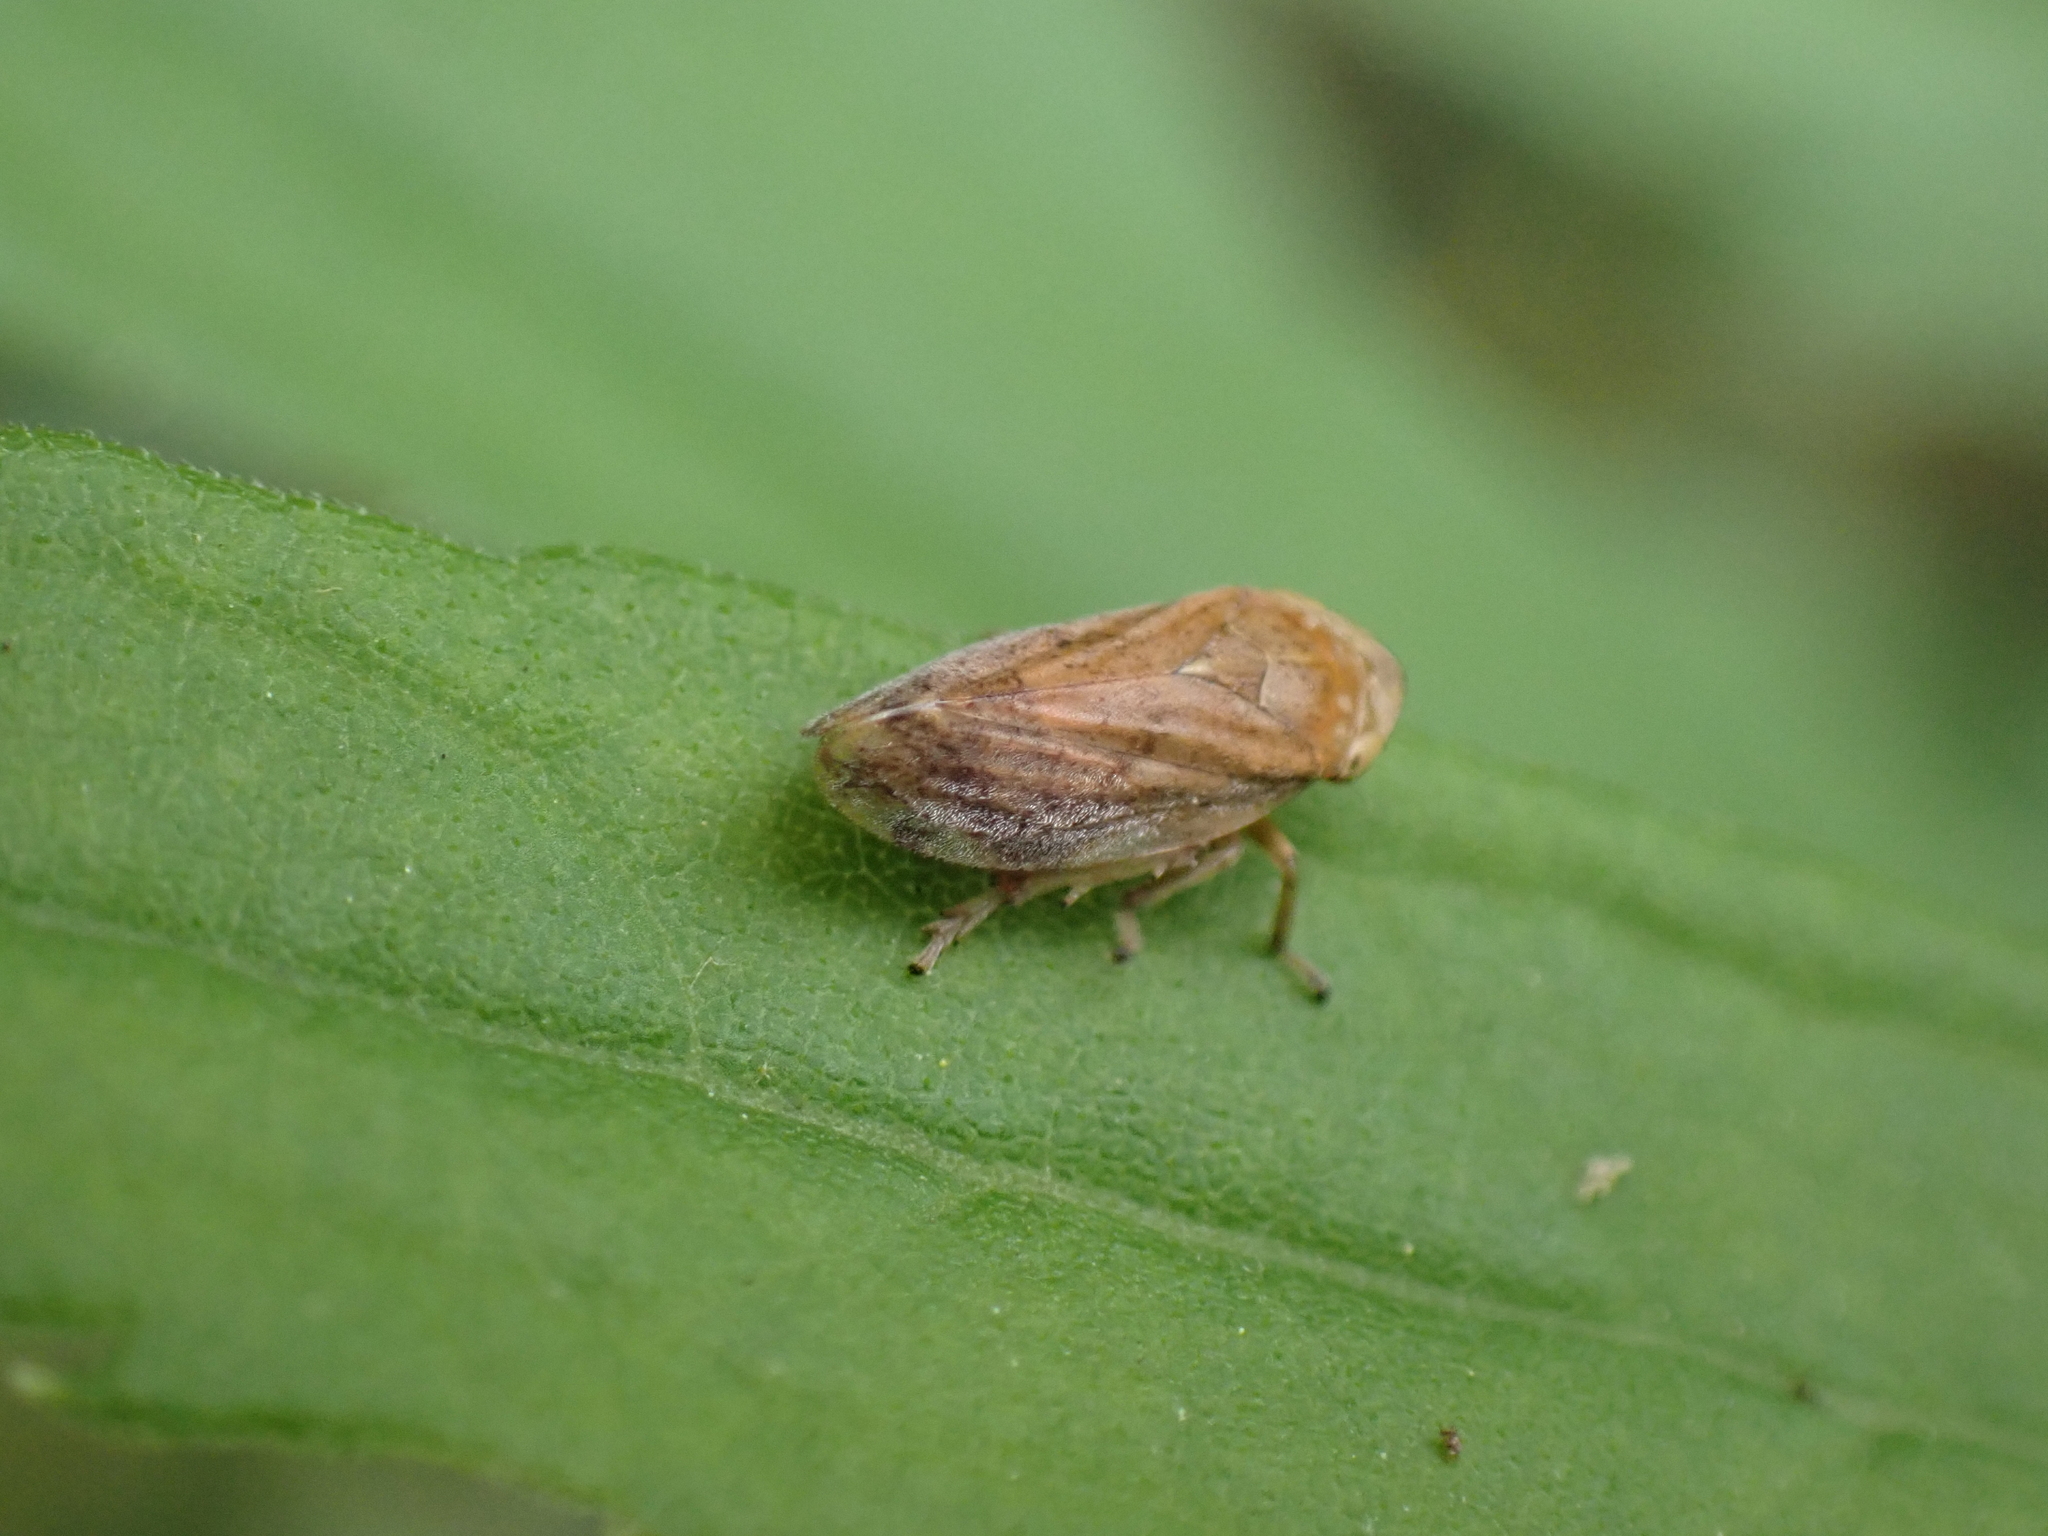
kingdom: Animalia
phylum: Arthropoda
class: Insecta
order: Hemiptera
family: Aphrophoridae
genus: Philaenus
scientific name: Philaenus spumarius
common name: Meadow spittlebug
